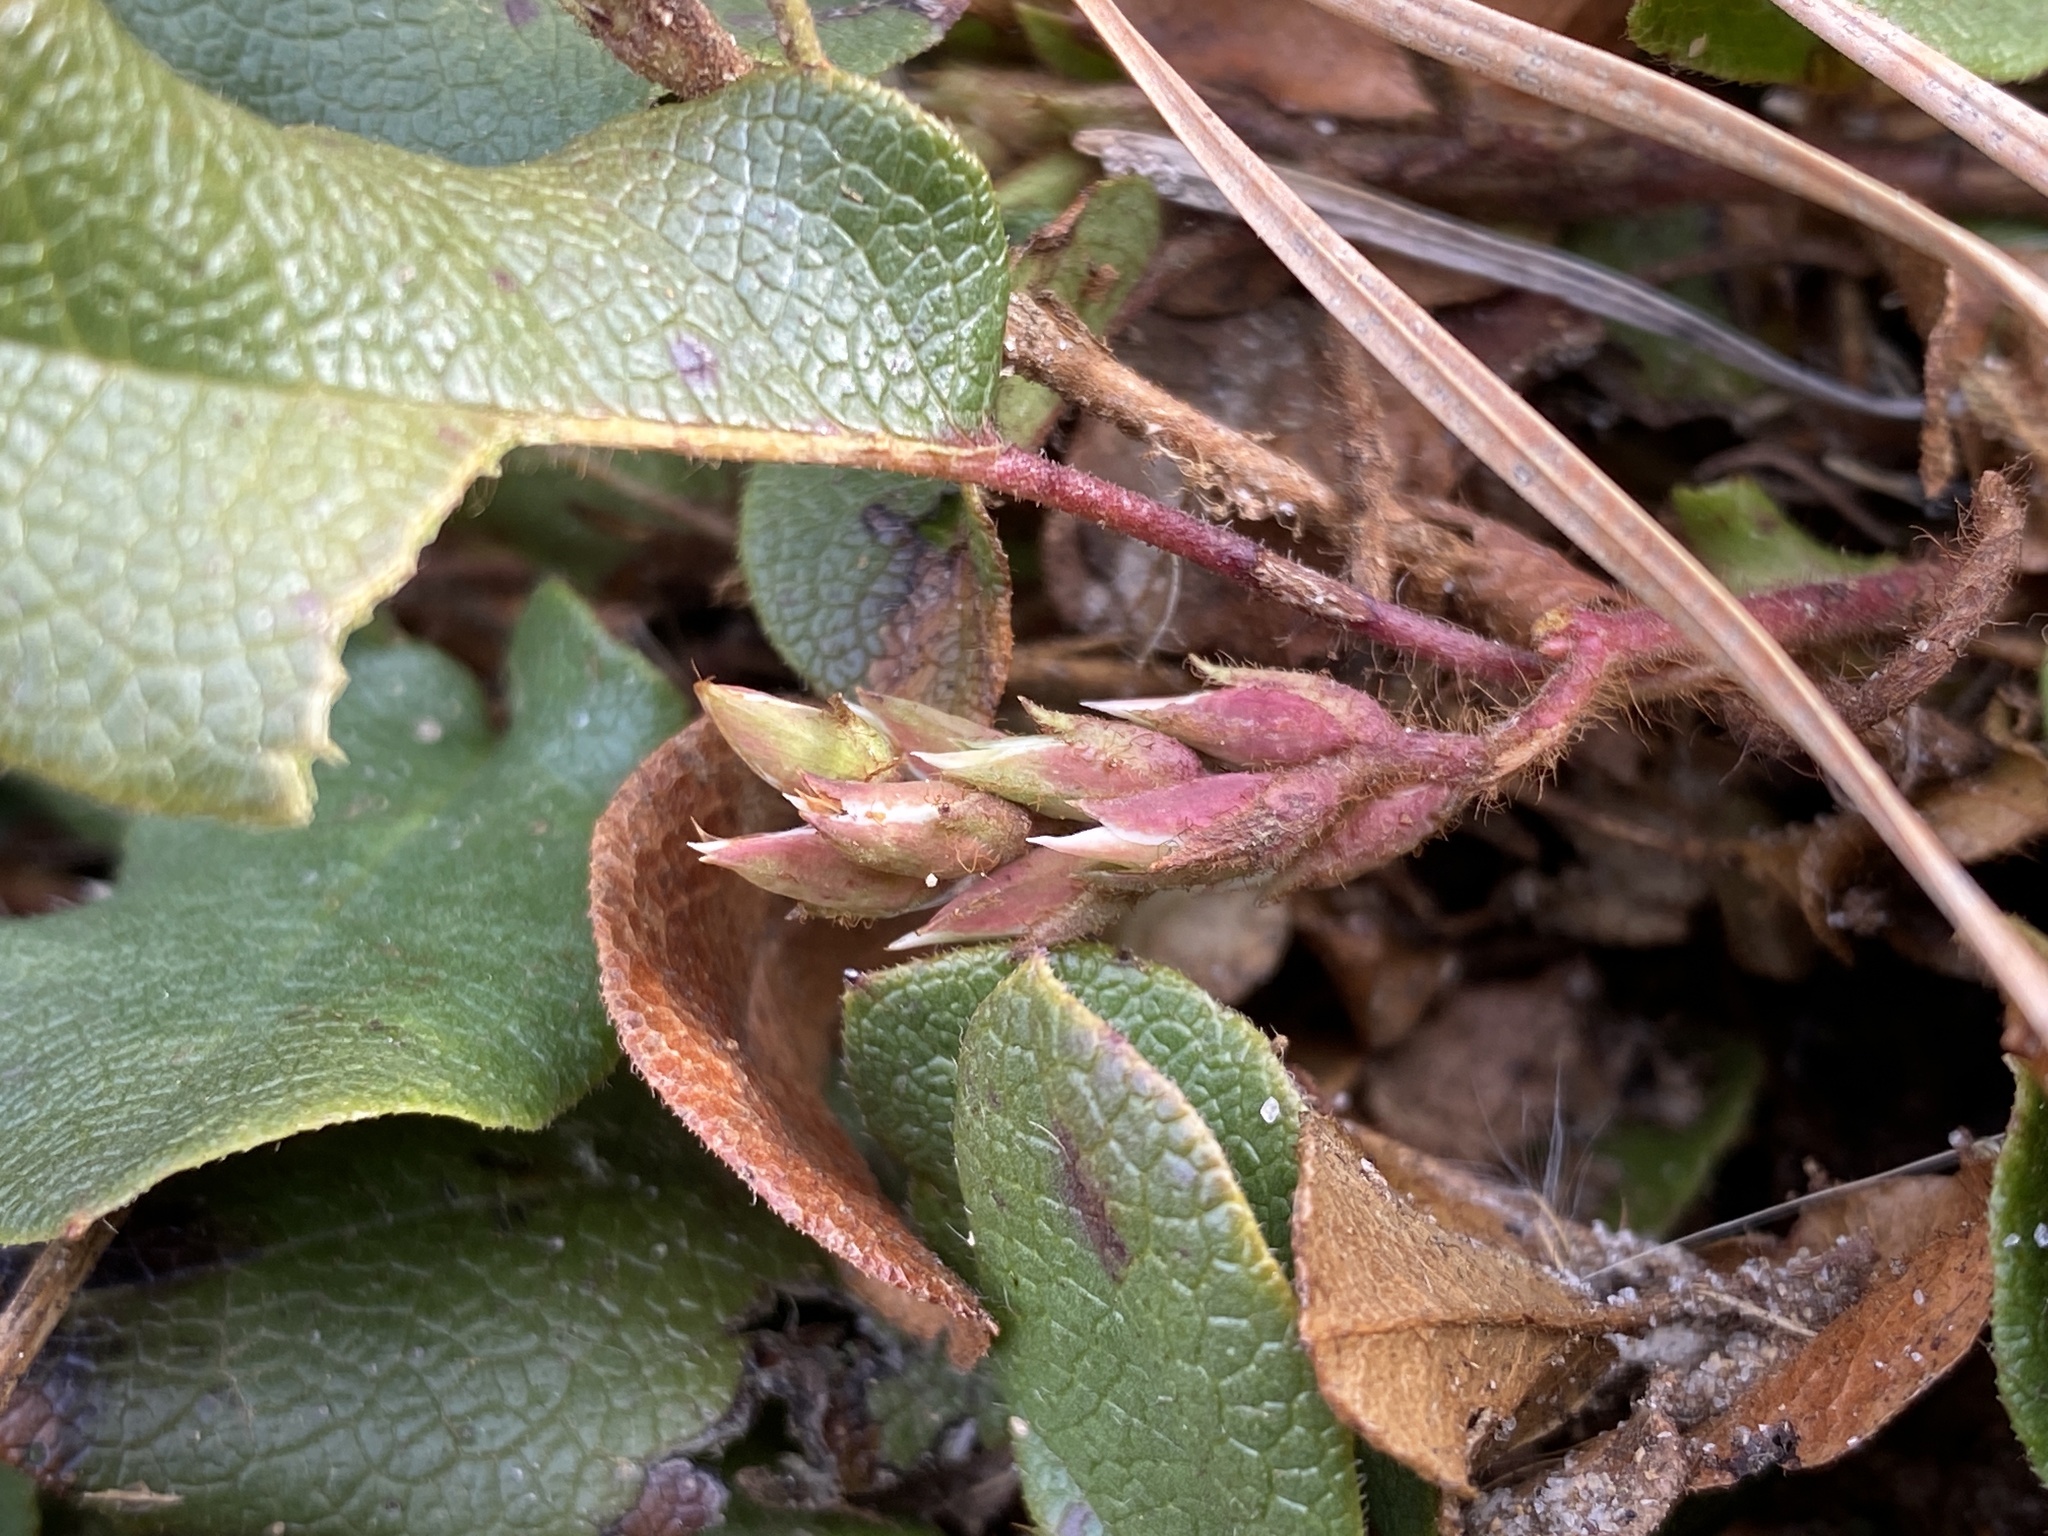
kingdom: Plantae
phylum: Tracheophyta
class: Magnoliopsida
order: Ericales
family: Ericaceae
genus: Epigaea
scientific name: Epigaea repens
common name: Gravelroot
